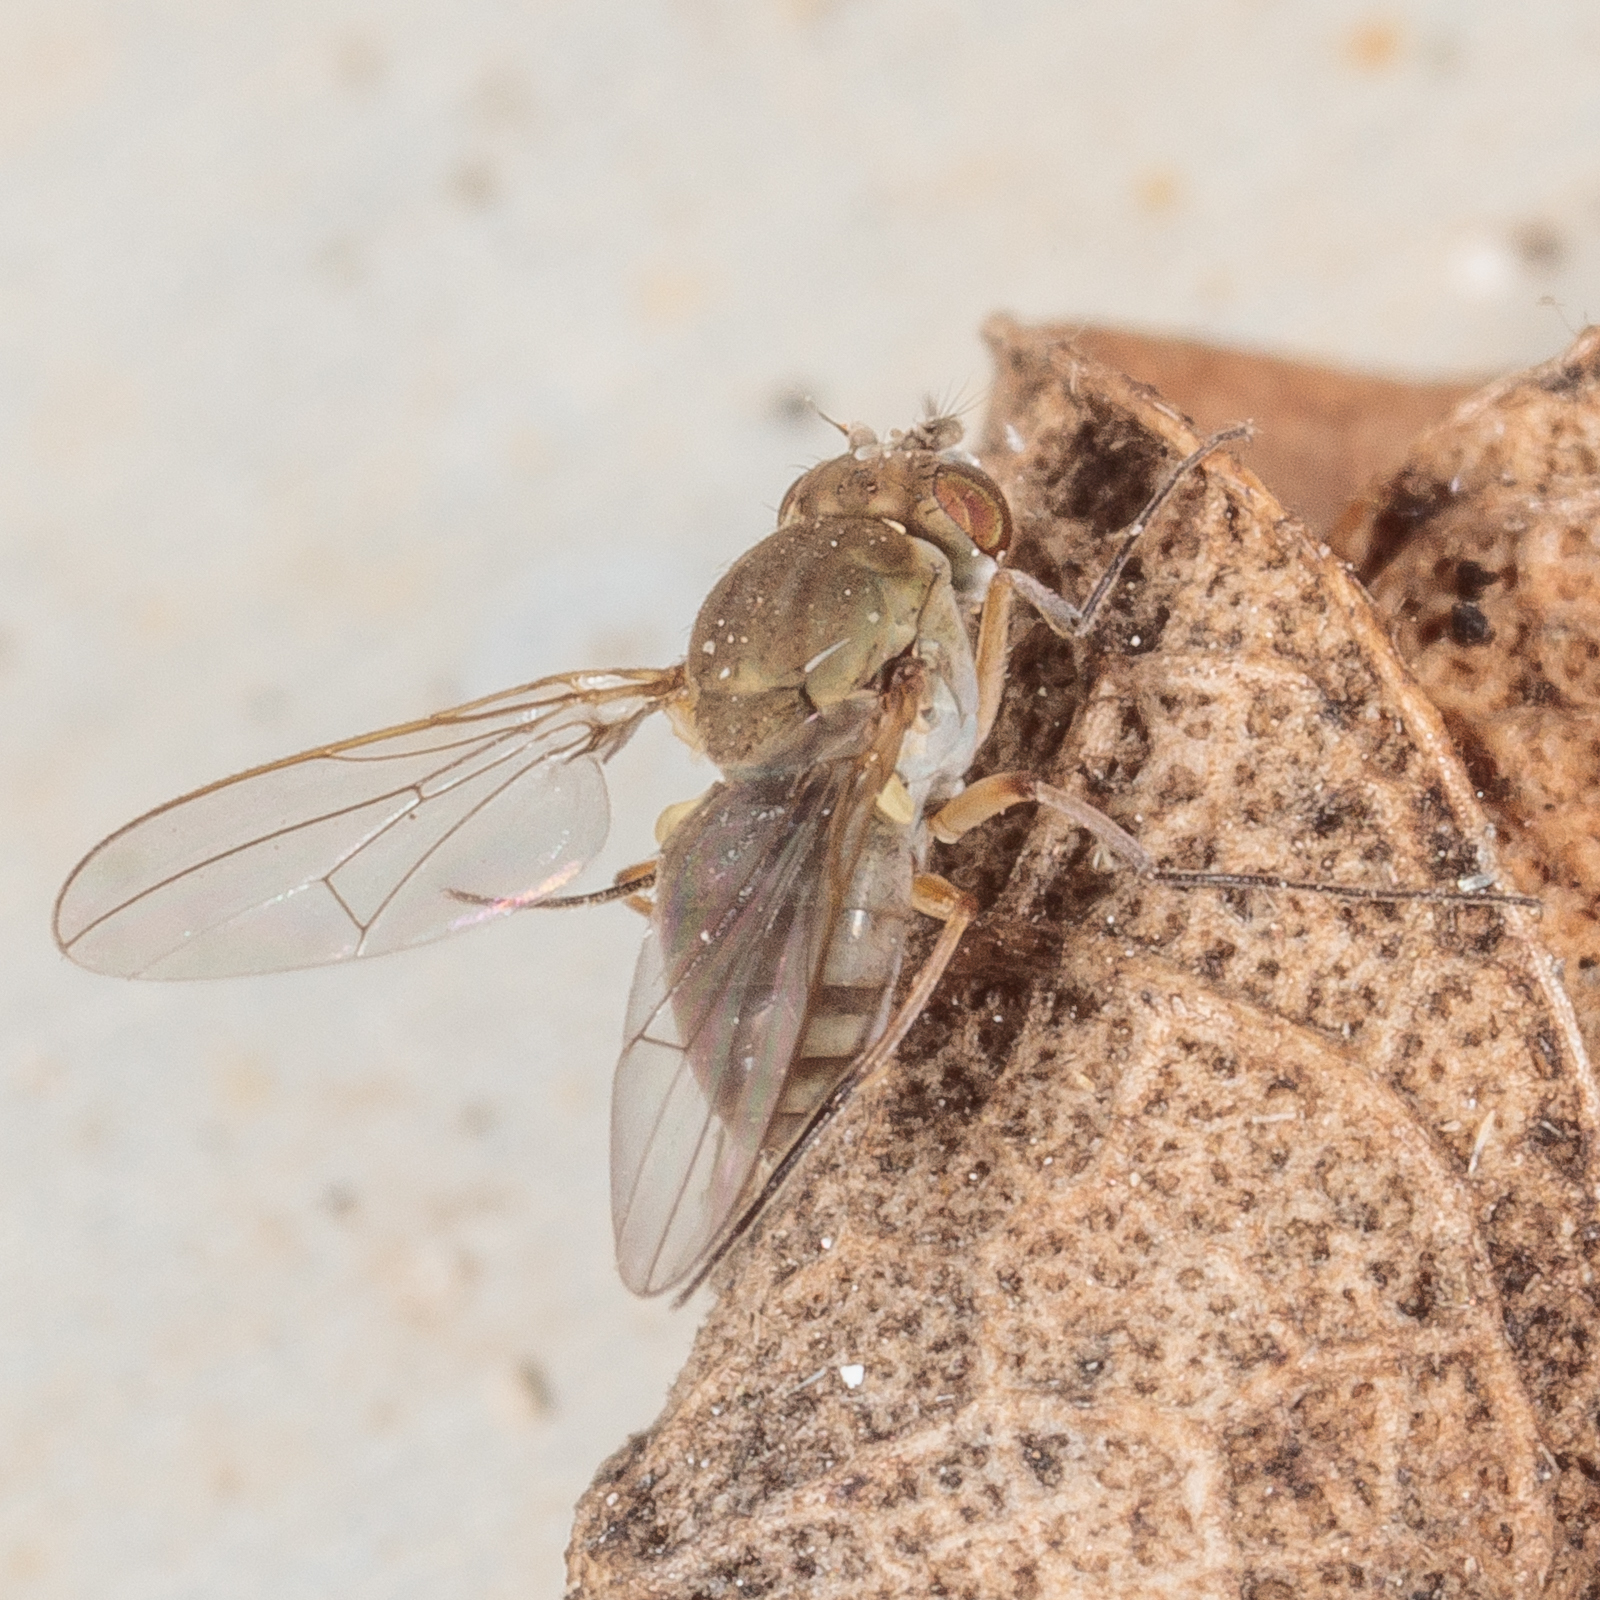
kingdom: Animalia
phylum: Arthropoda
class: Insecta
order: Diptera
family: Ephydridae
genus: Brachydeutera
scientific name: Brachydeutera longipes
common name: Shore fly
